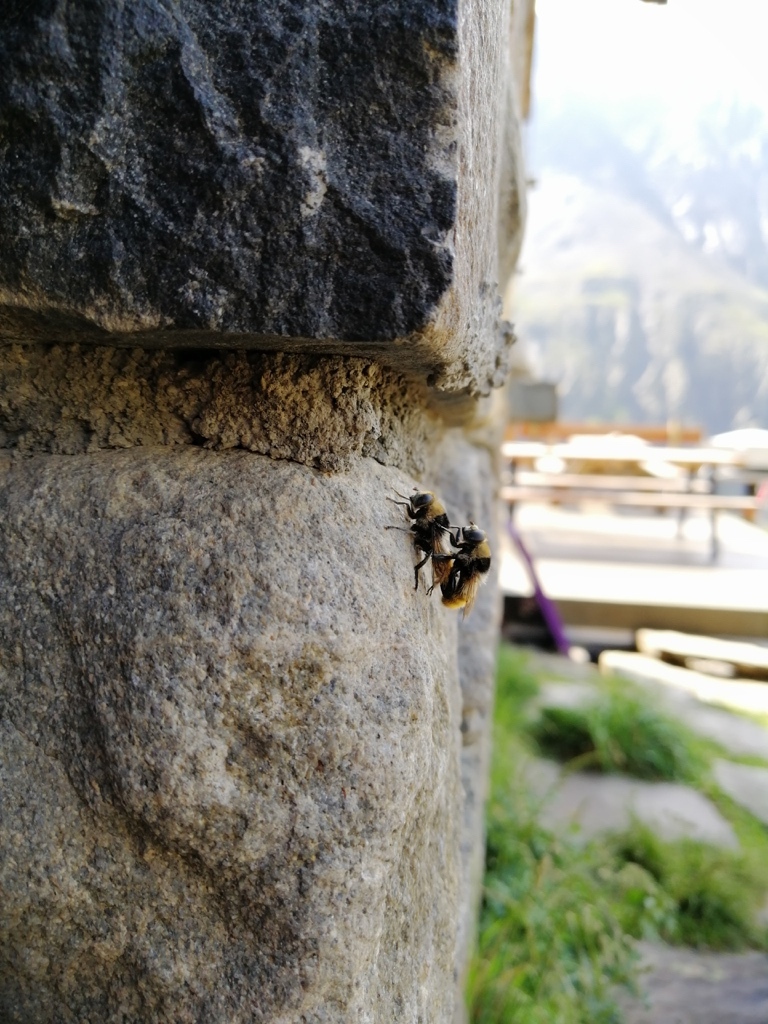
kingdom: Animalia
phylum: Arthropoda
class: Insecta
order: Diptera
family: Syrphidae
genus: Merodon
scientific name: Merodon equestris
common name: Greater bulb-fly
